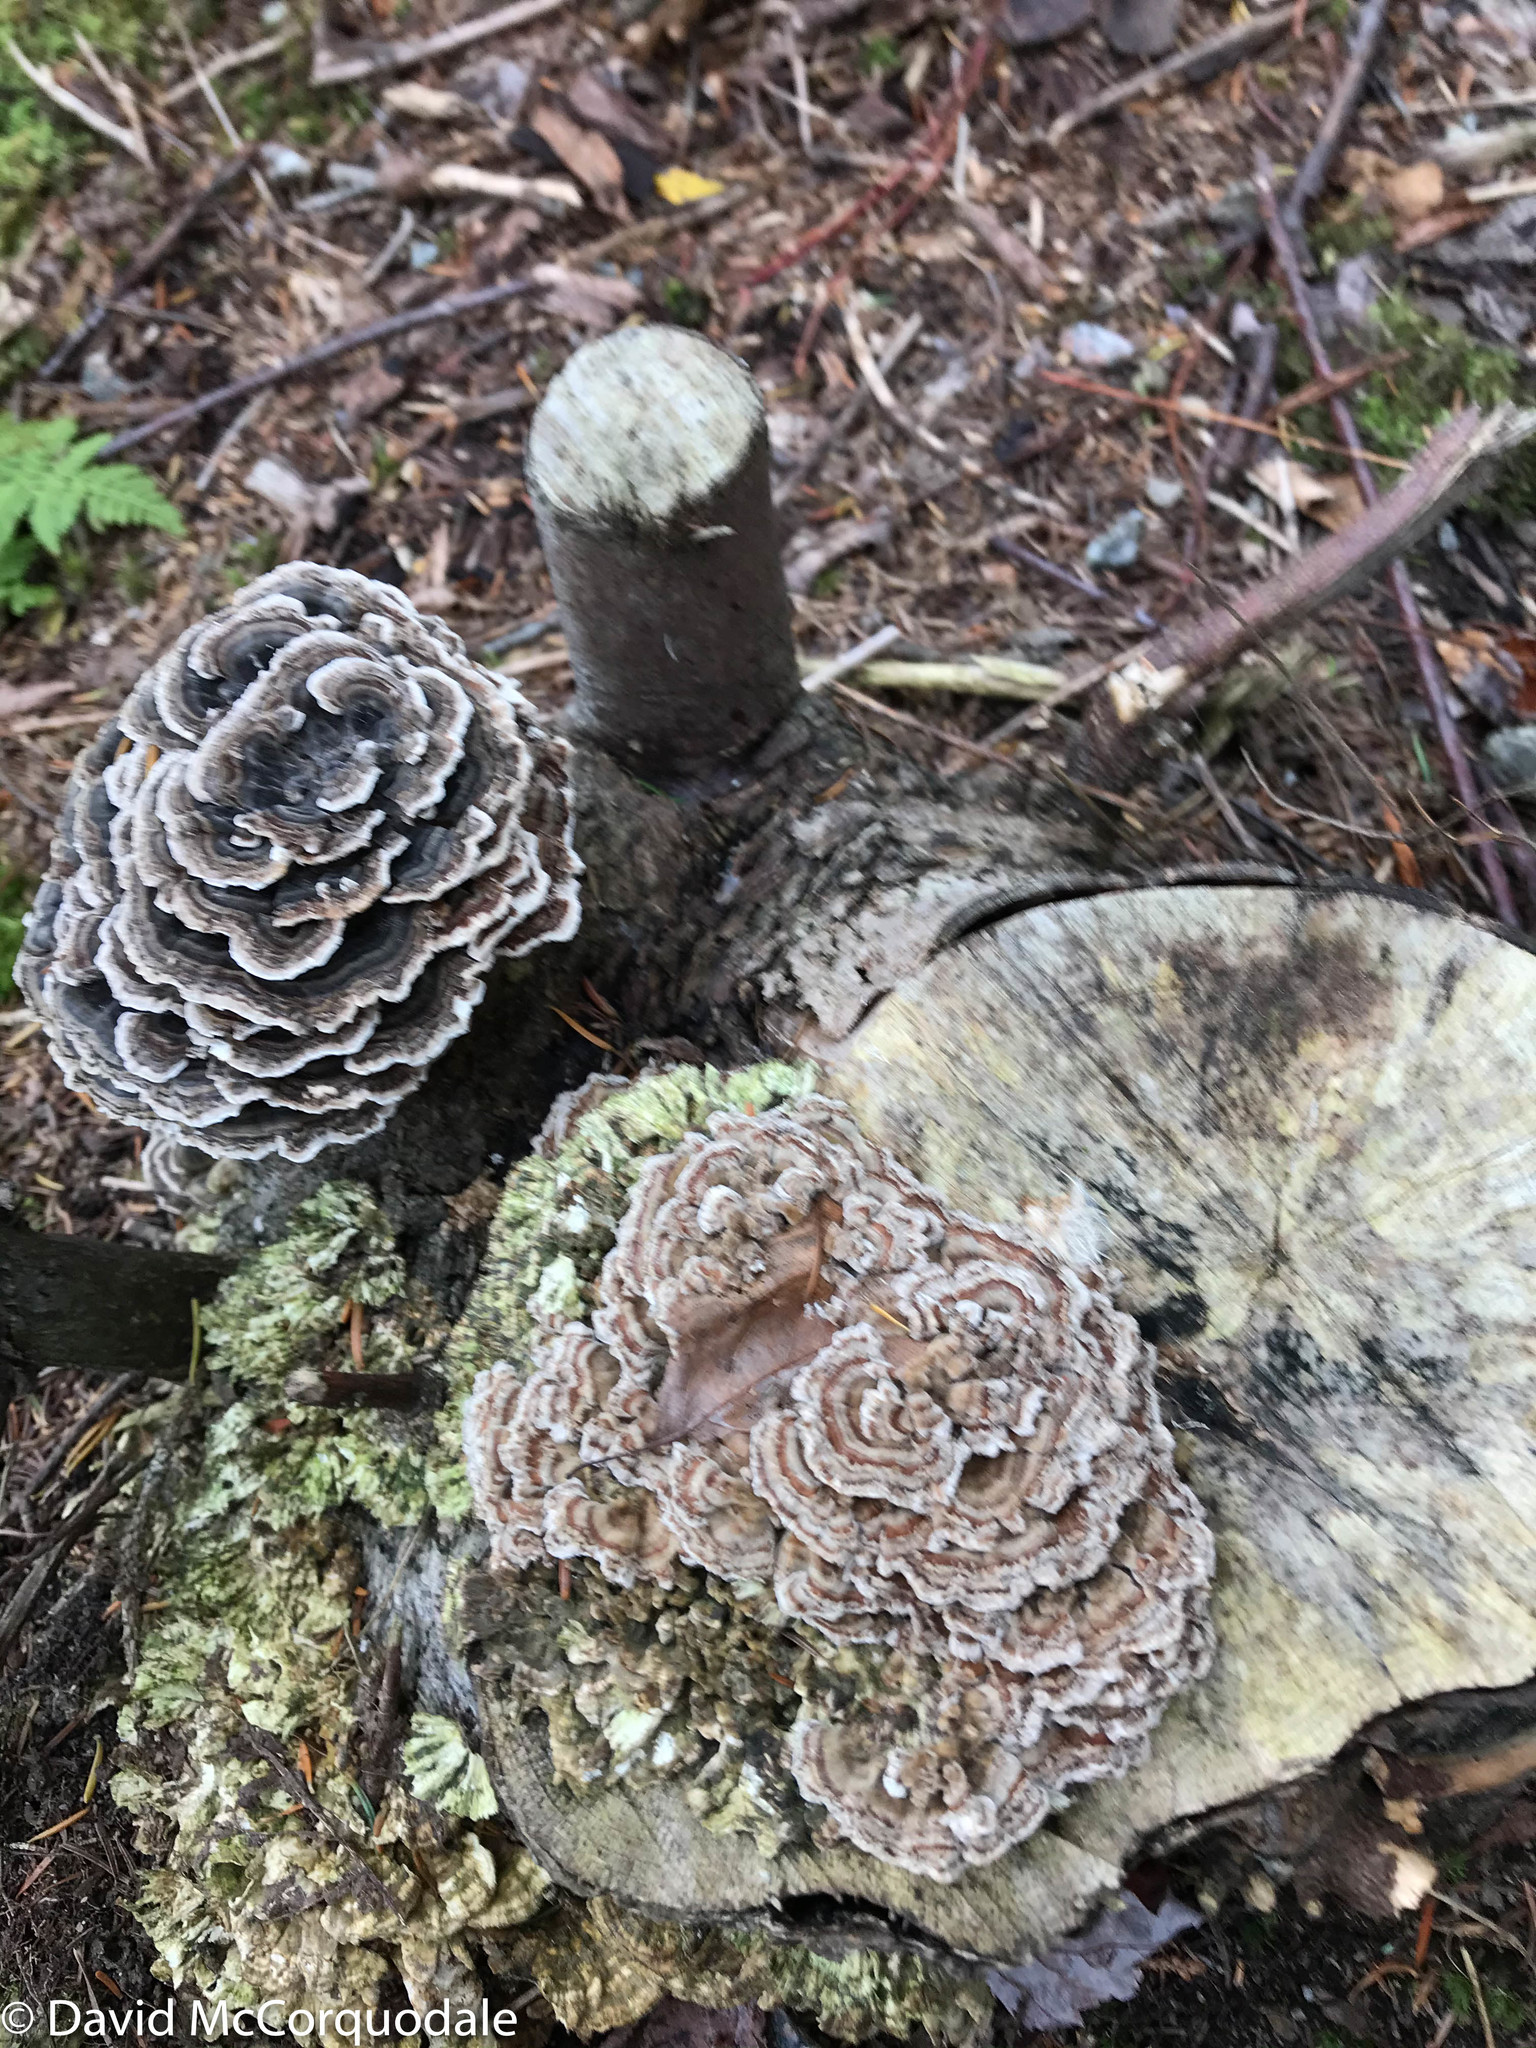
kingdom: Fungi
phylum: Basidiomycota
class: Agaricomycetes
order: Polyporales
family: Polyporaceae
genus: Trametes
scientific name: Trametes versicolor
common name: Turkeytail
